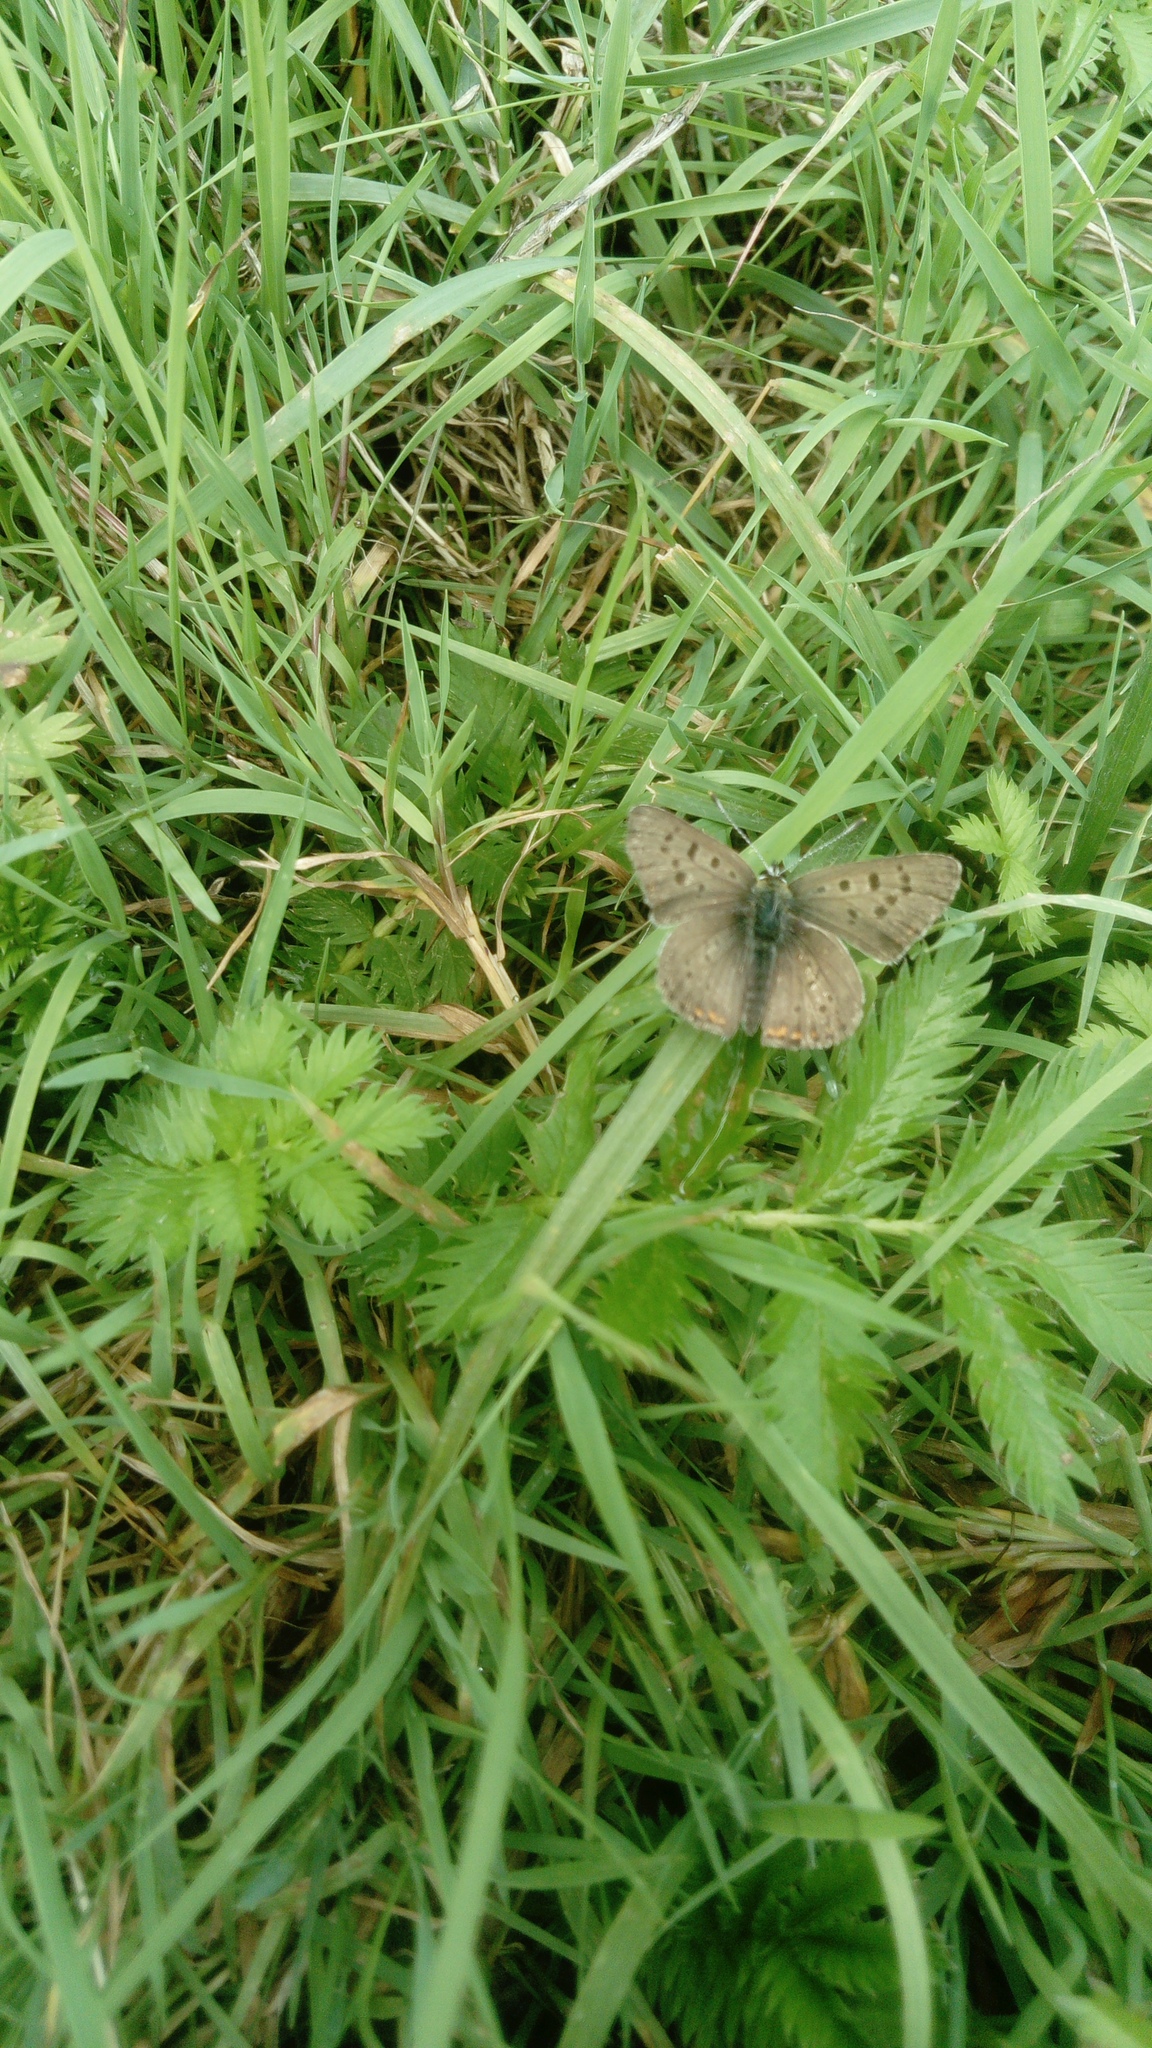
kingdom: Animalia
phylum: Arthropoda
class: Insecta
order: Lepidoptera
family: Lycaenidae
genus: Loweia
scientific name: Loweia tityrus
